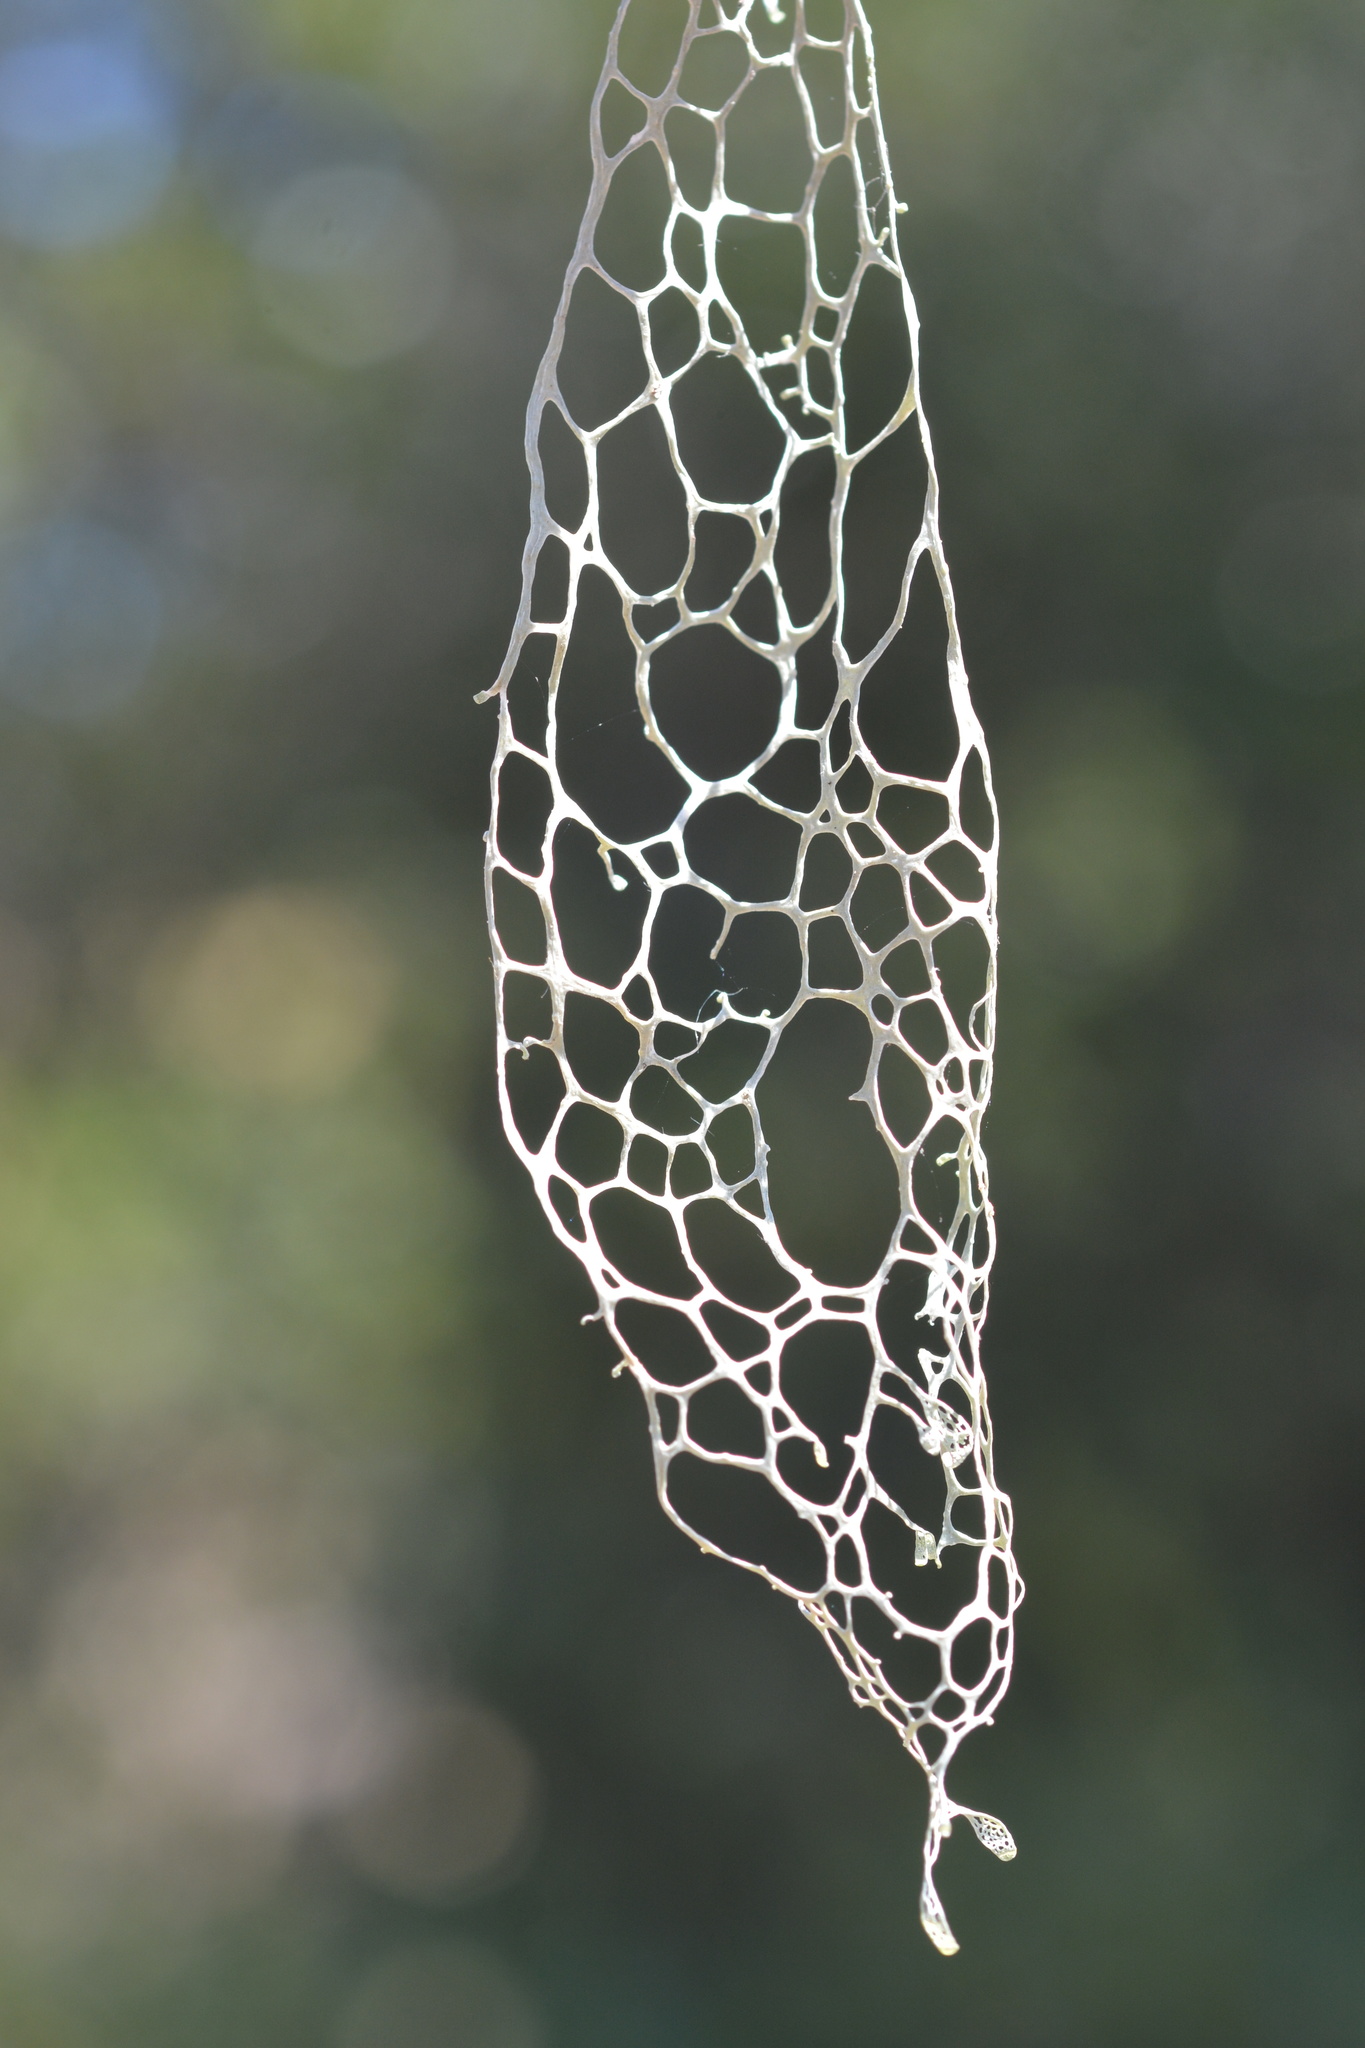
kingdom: Fungi
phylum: Ascomycota
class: Lecanoromycetes
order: Lecanorales
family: Ramalinaceae
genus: Ramalina
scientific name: Ramalina menziesii
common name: Lace lichen
